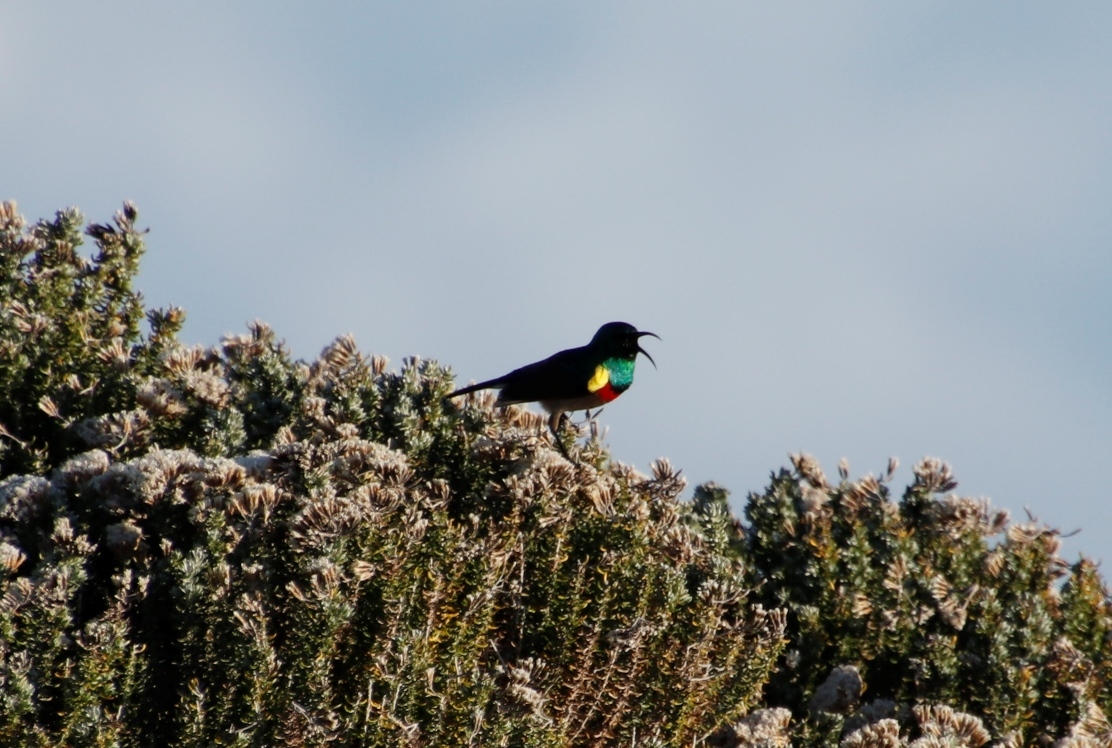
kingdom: Animalia
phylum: Chordata
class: Aves
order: Passeriformes
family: Nectariniidae
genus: Cinnyris
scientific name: Cinnyris chalybeus
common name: Southern double-collared sunbird
